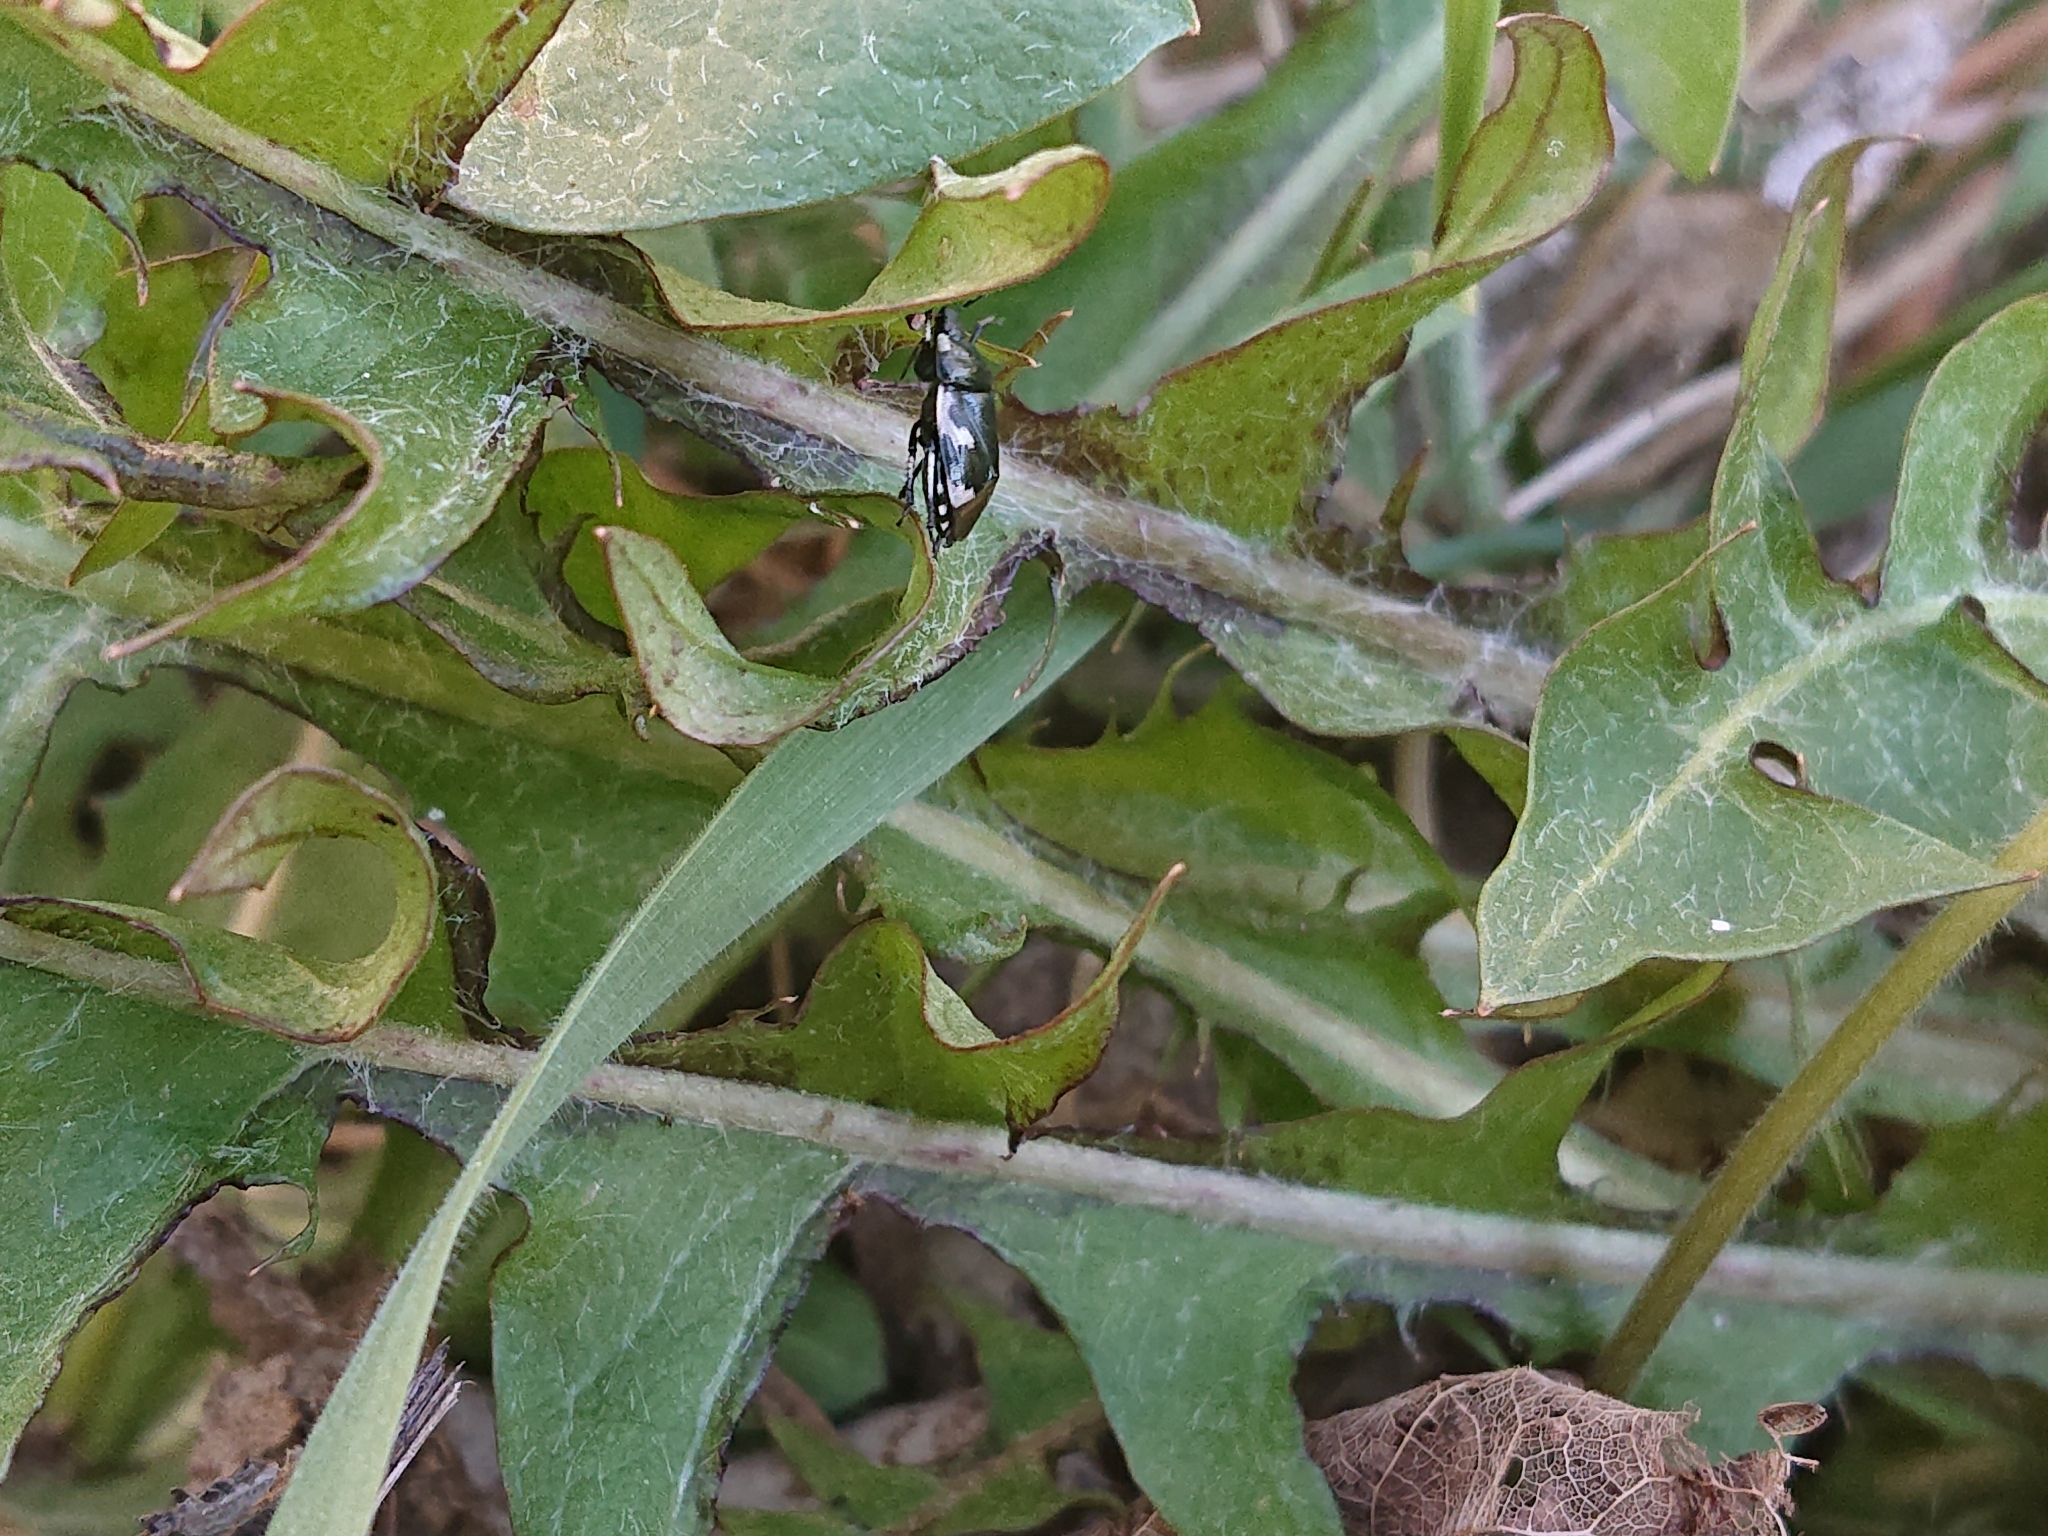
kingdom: Animalia
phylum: Arthropoda
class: Insecta
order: Hemiptera
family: Cydnidae
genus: Tritomegas
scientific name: Tritomegas bicolor
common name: Pied shieldbug
